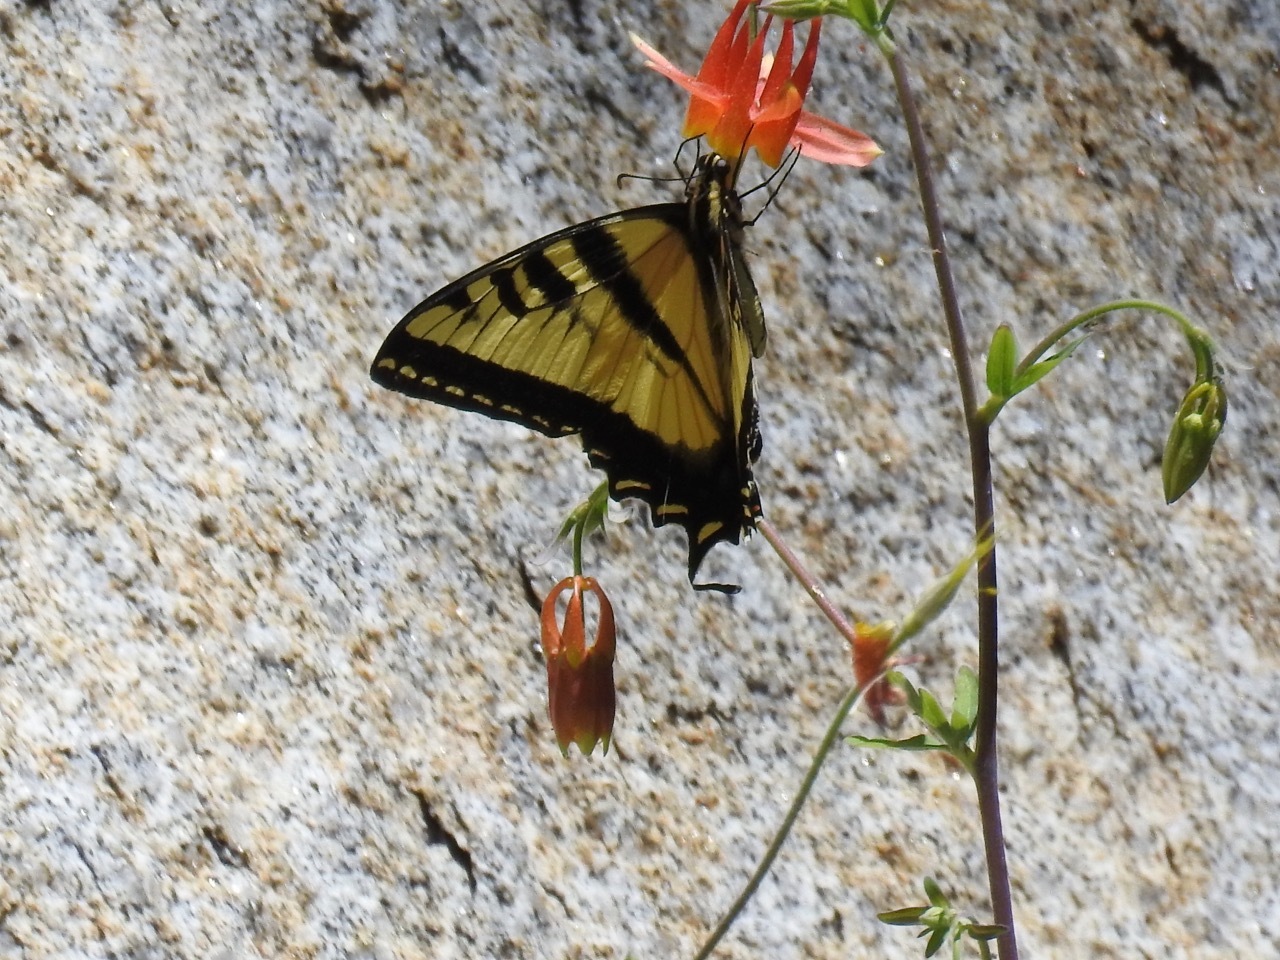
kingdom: Animalia
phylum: Arthropoda
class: Insecta
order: Lepidoptera
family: Papilionidae
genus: Papilio
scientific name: Papilio rutulus
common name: Western tiger swallowtail
